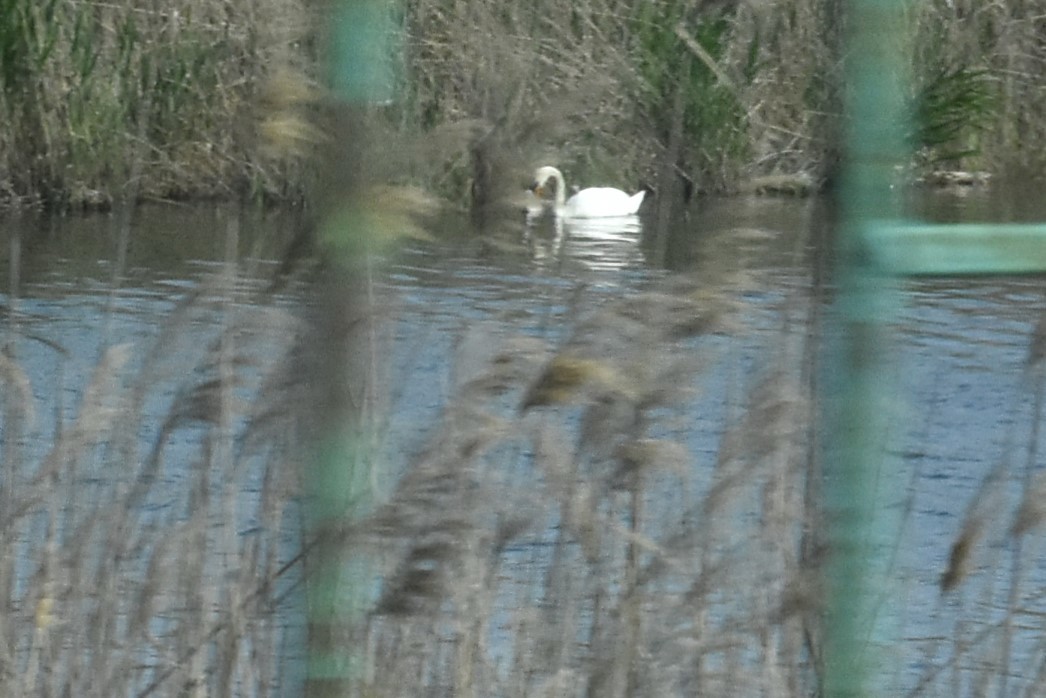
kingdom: Animalia
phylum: Chordata
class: Aves
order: Anseriformes
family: Anatidae
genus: Cygnus
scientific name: Cygnus olor
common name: Mute swan
